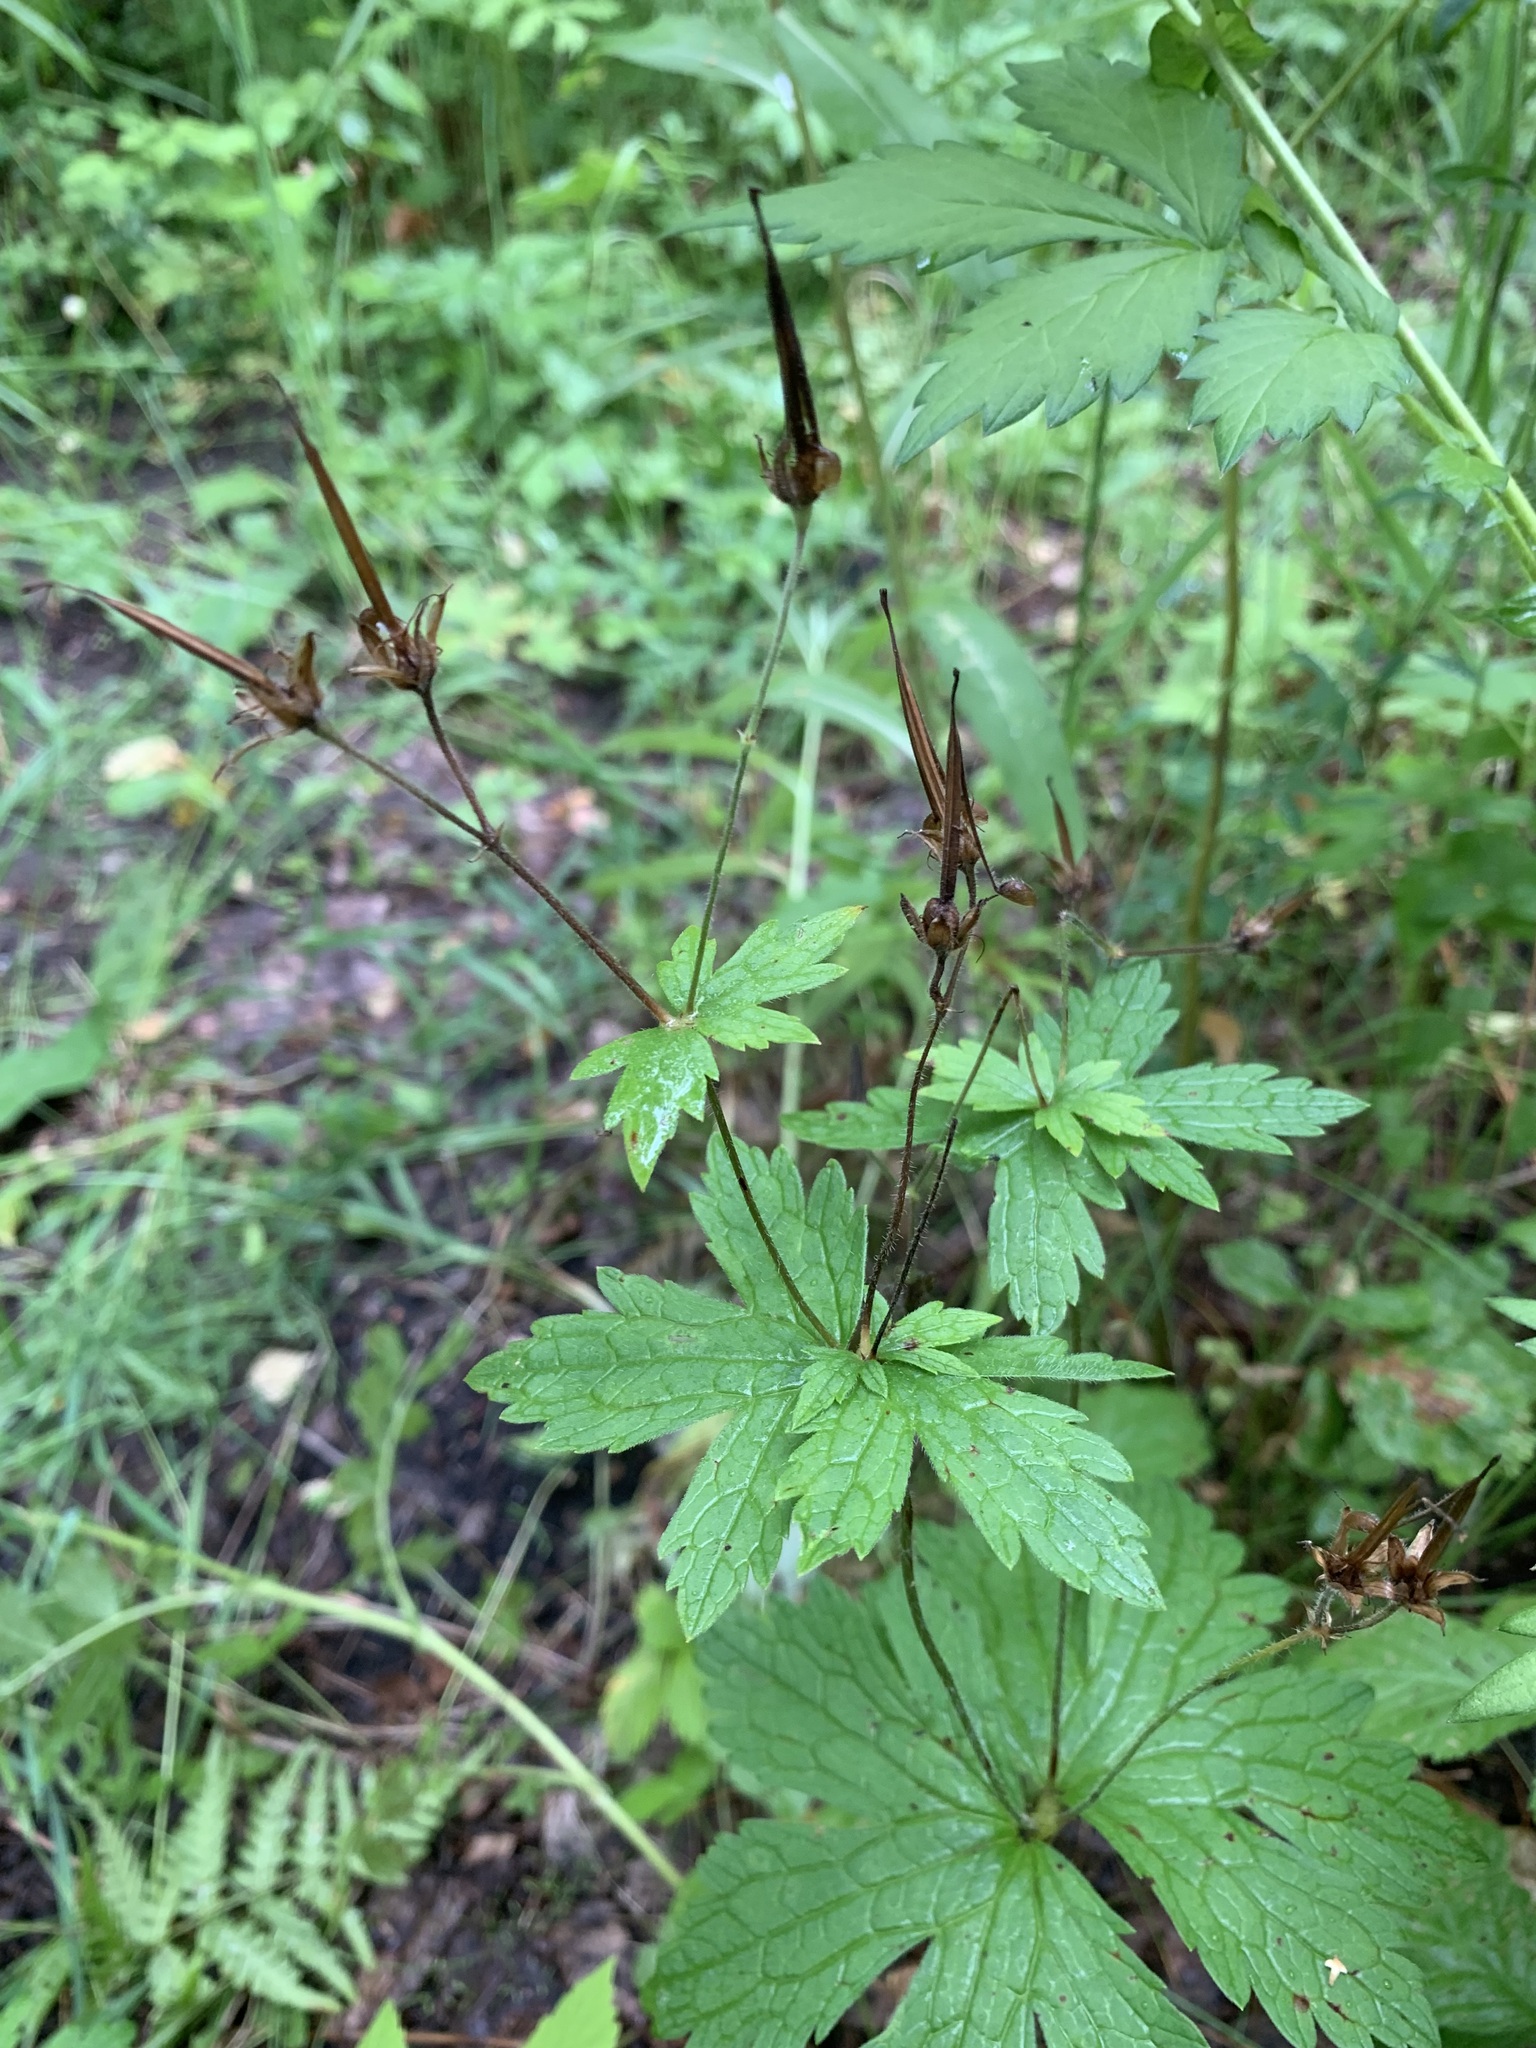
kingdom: Plantae
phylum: Tracheophyta
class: Magnoliopsida
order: Geraniales
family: Geraniaceae
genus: Geranium
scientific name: Geranium sylvaticum
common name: Wood crane's-bill
